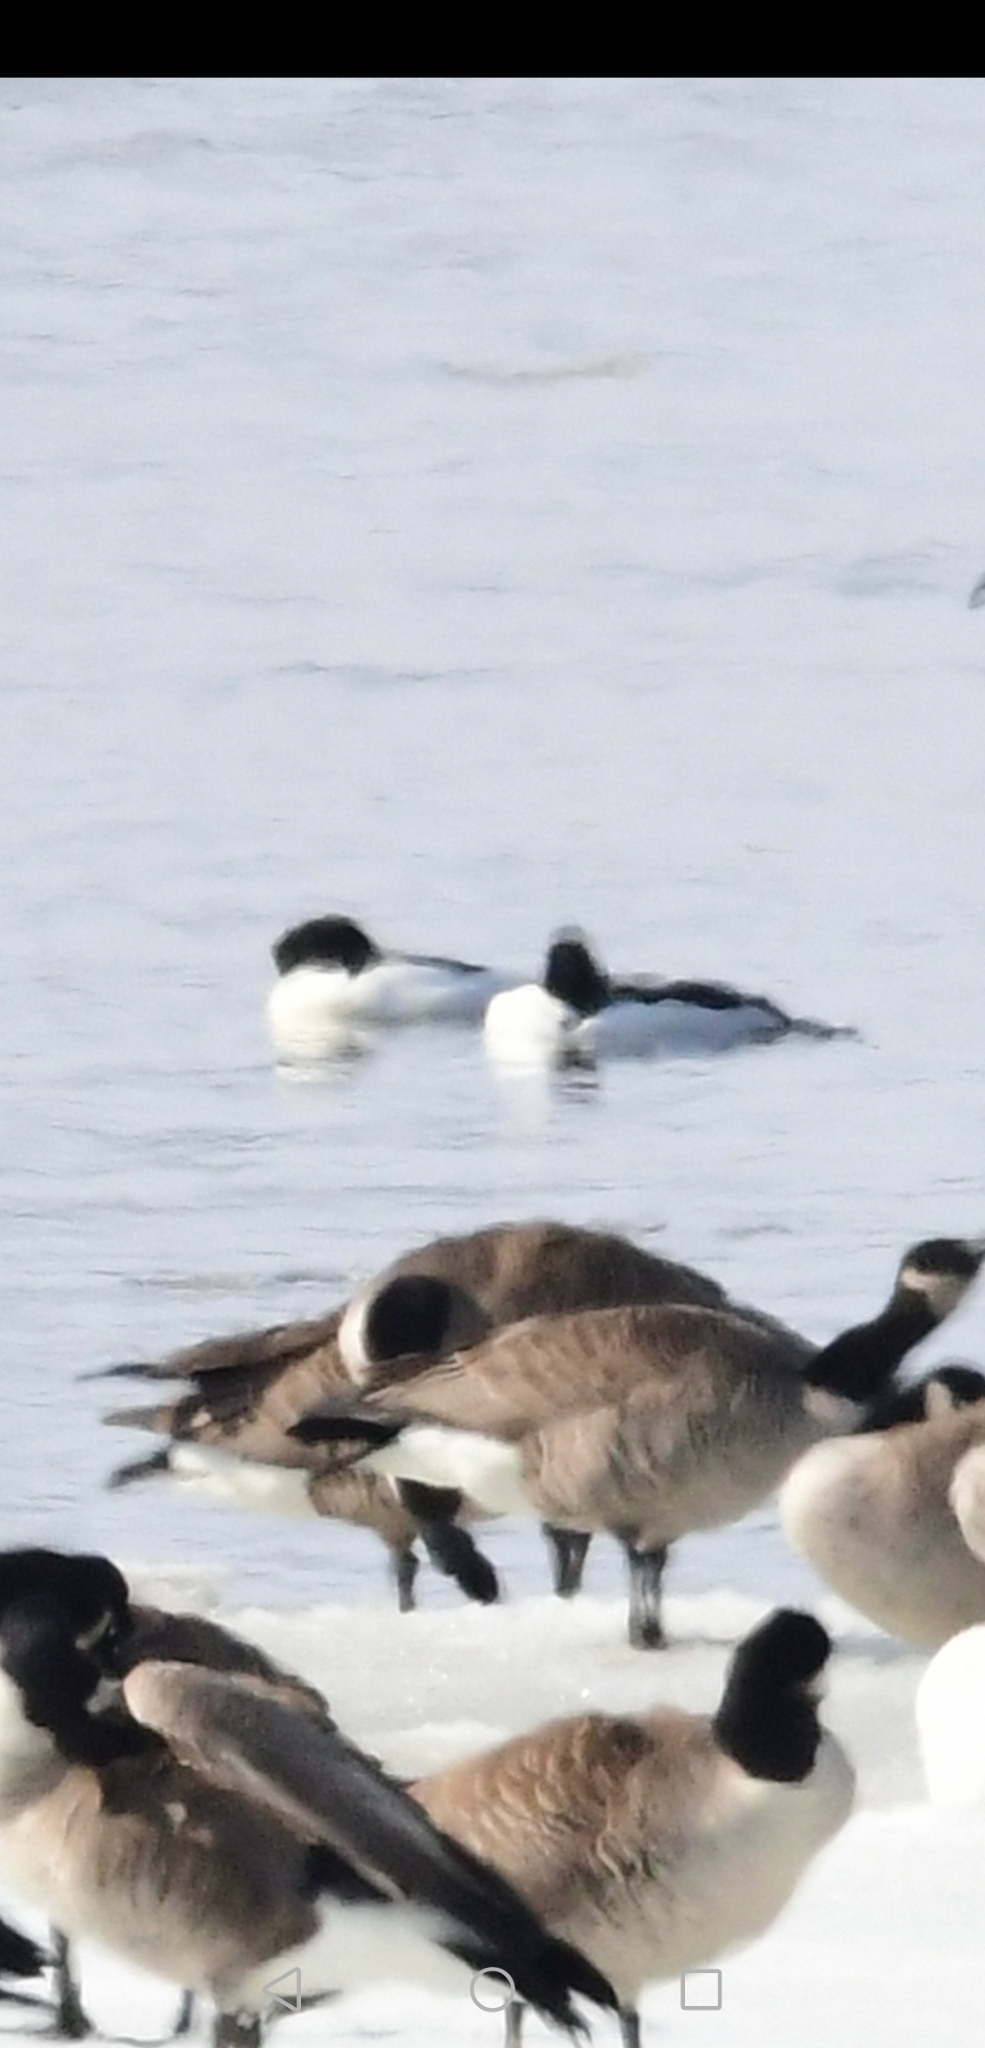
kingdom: Animalia
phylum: Chordata
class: Aves
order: Anseriformes
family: Anatidae
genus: Mergus
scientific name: Mergus merganser
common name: Common merganser
